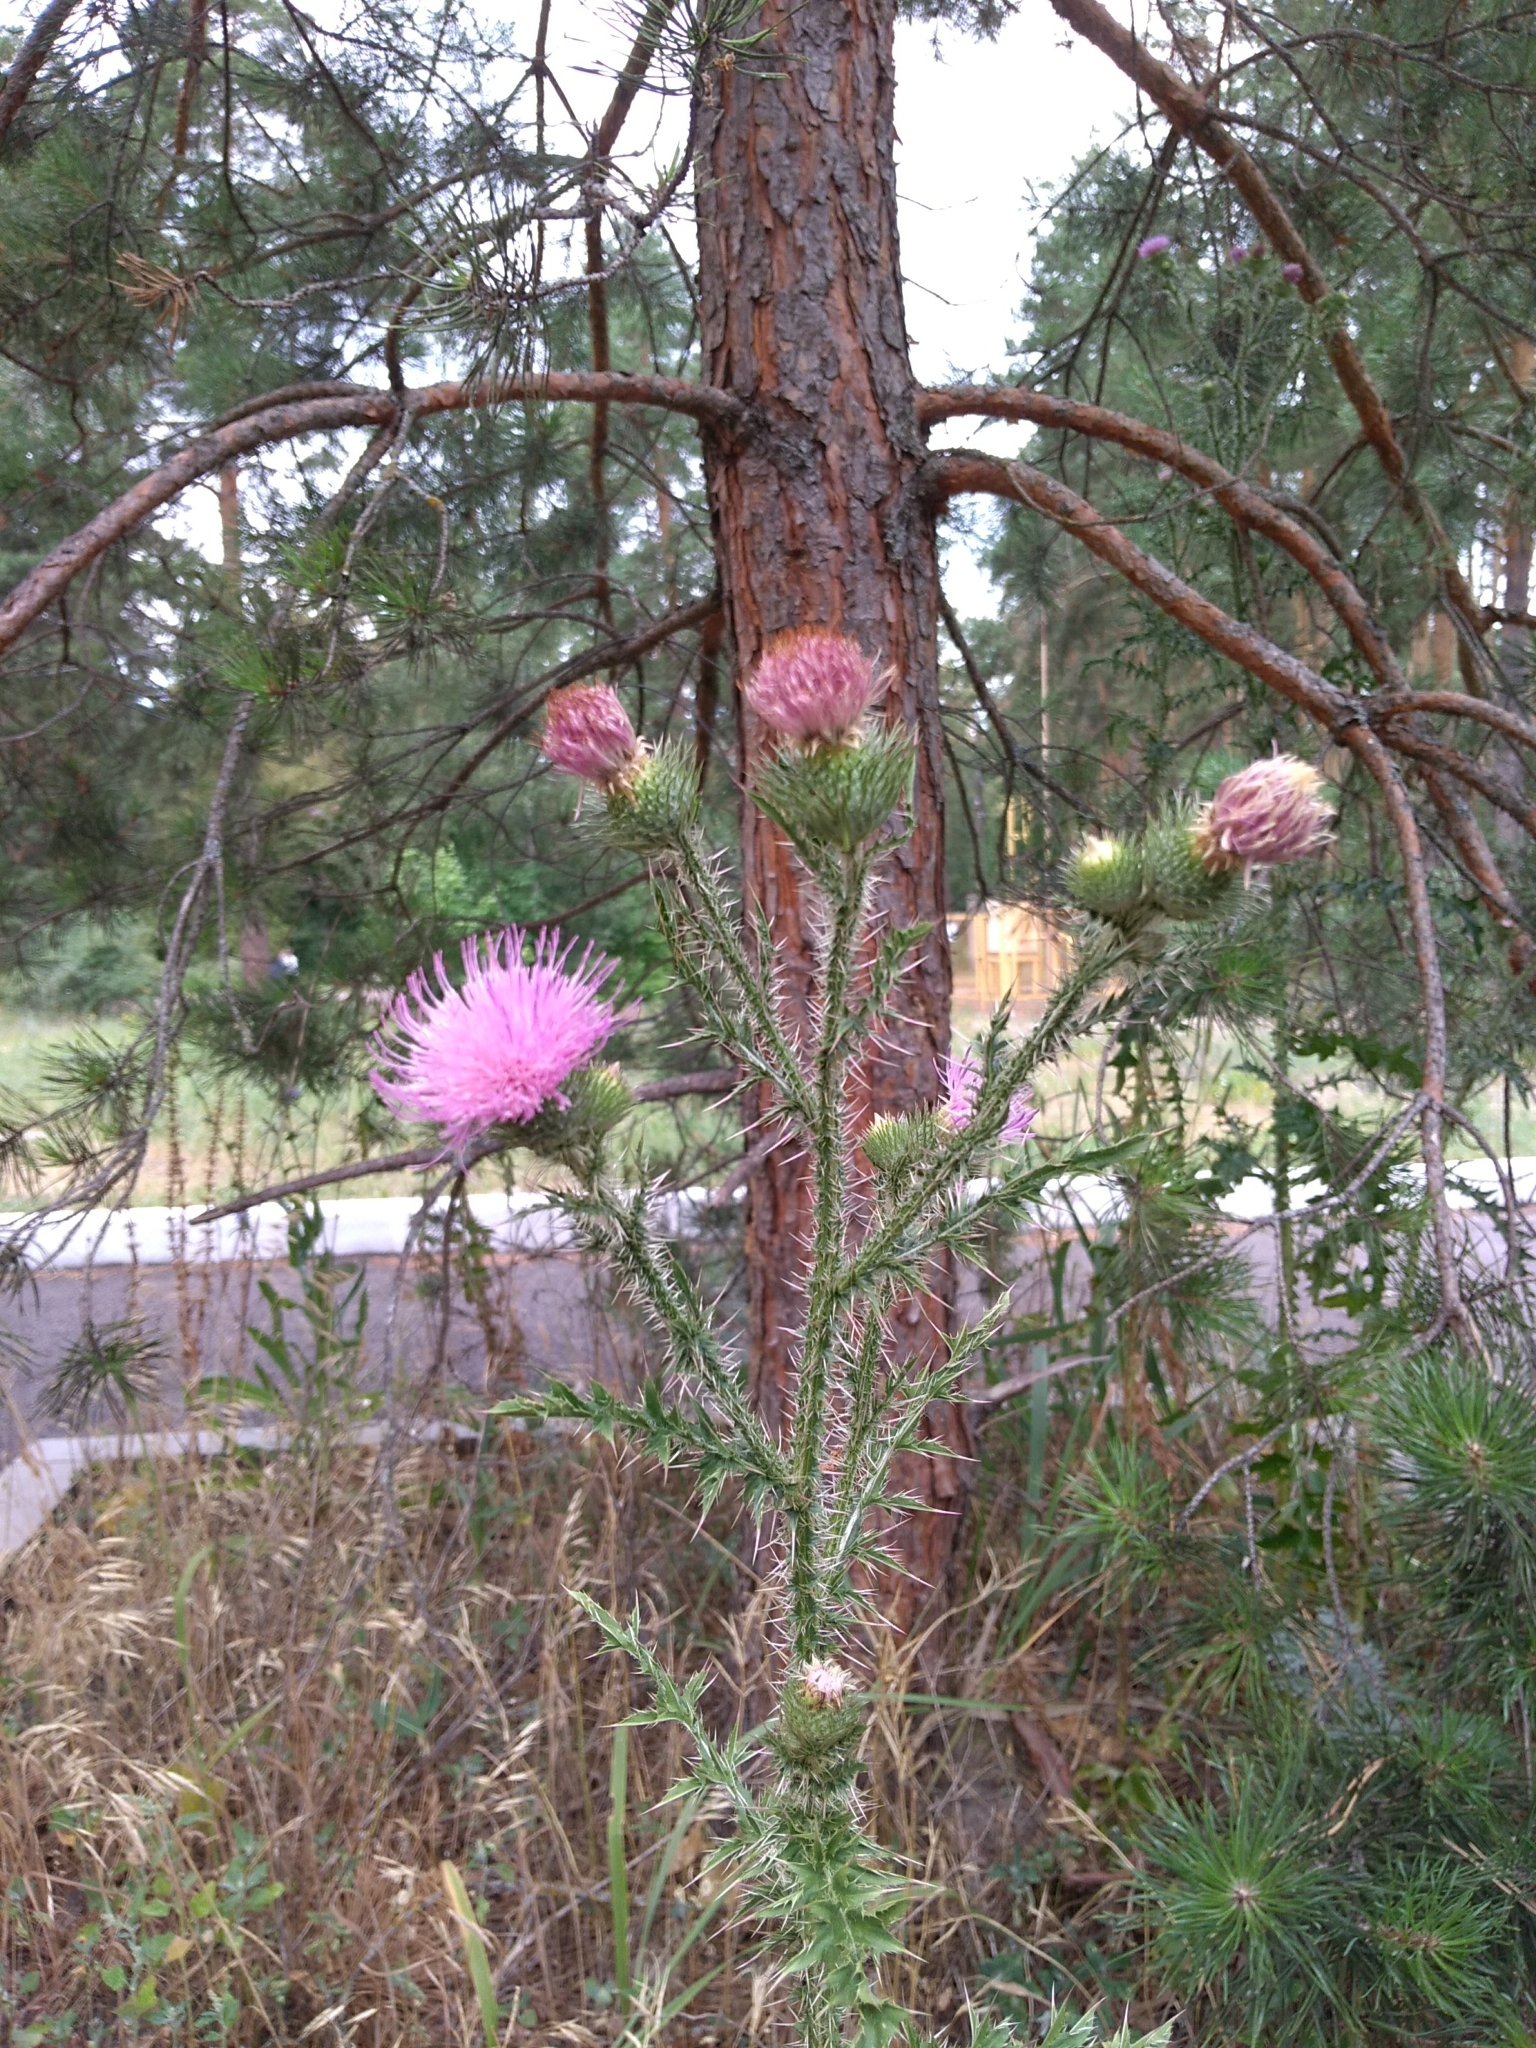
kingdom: Plantae
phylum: Tracheophyta
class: Magnoliopsida
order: Asterales
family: Asteraceae
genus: Carduus
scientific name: Carduus acanthoides
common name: Plumeless thistle
